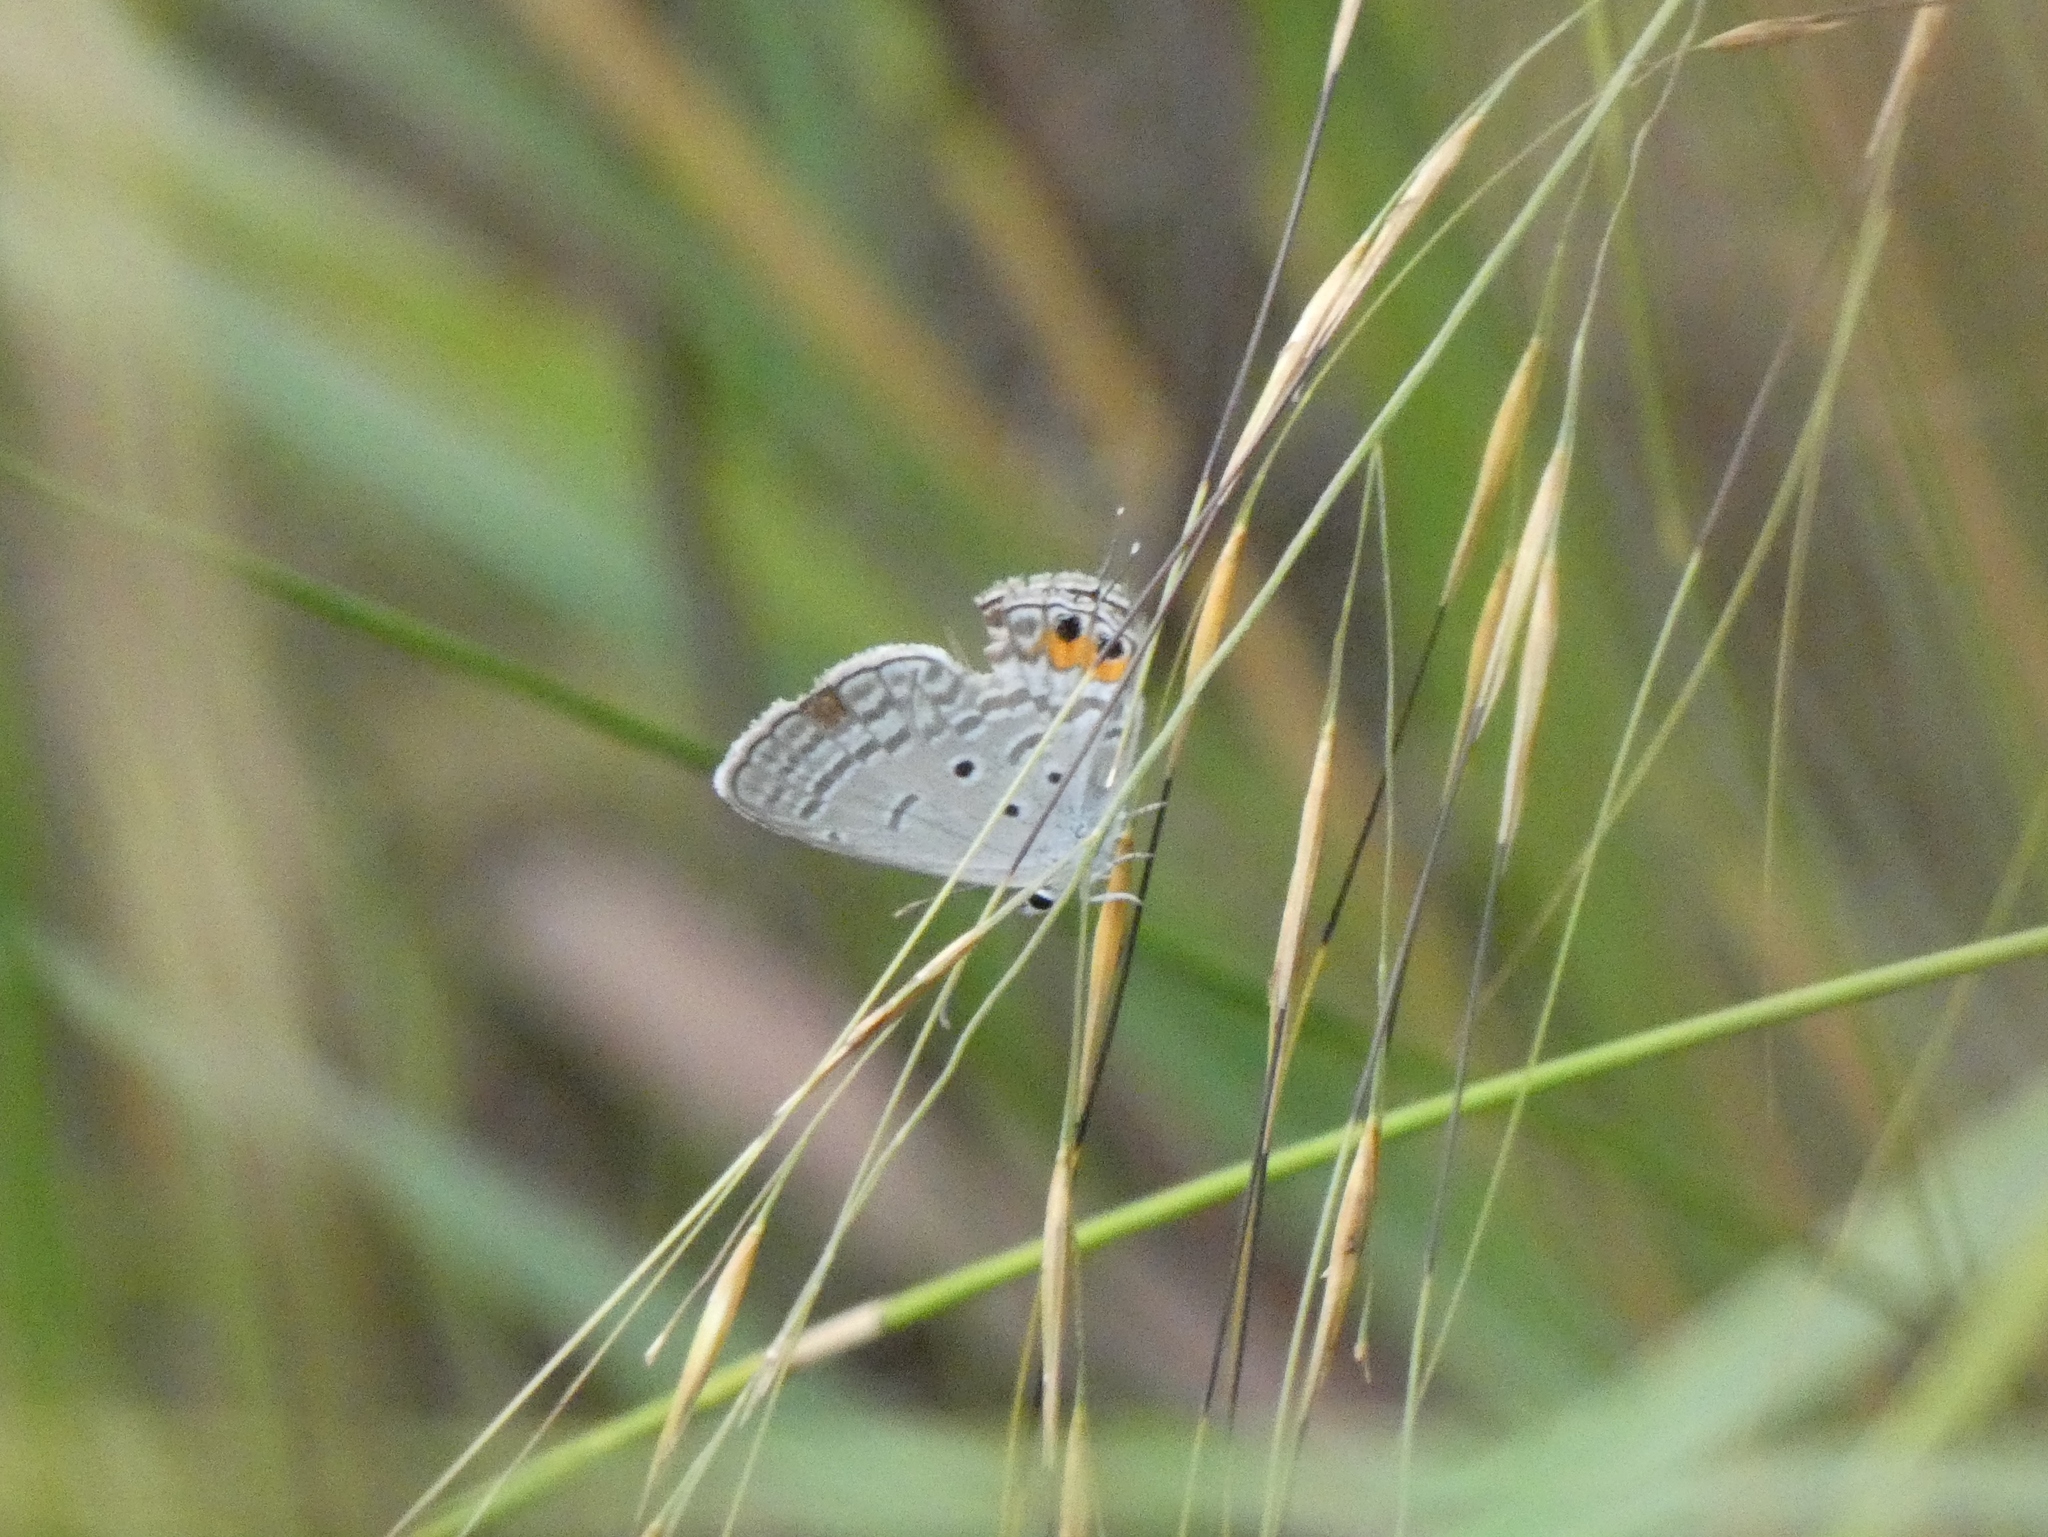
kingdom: Animalia
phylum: Arthropoda
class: Insecta
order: Lepidoptera
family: Lycaenidae
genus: Euchrysops
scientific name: Euchrysops osiris
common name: African blue
